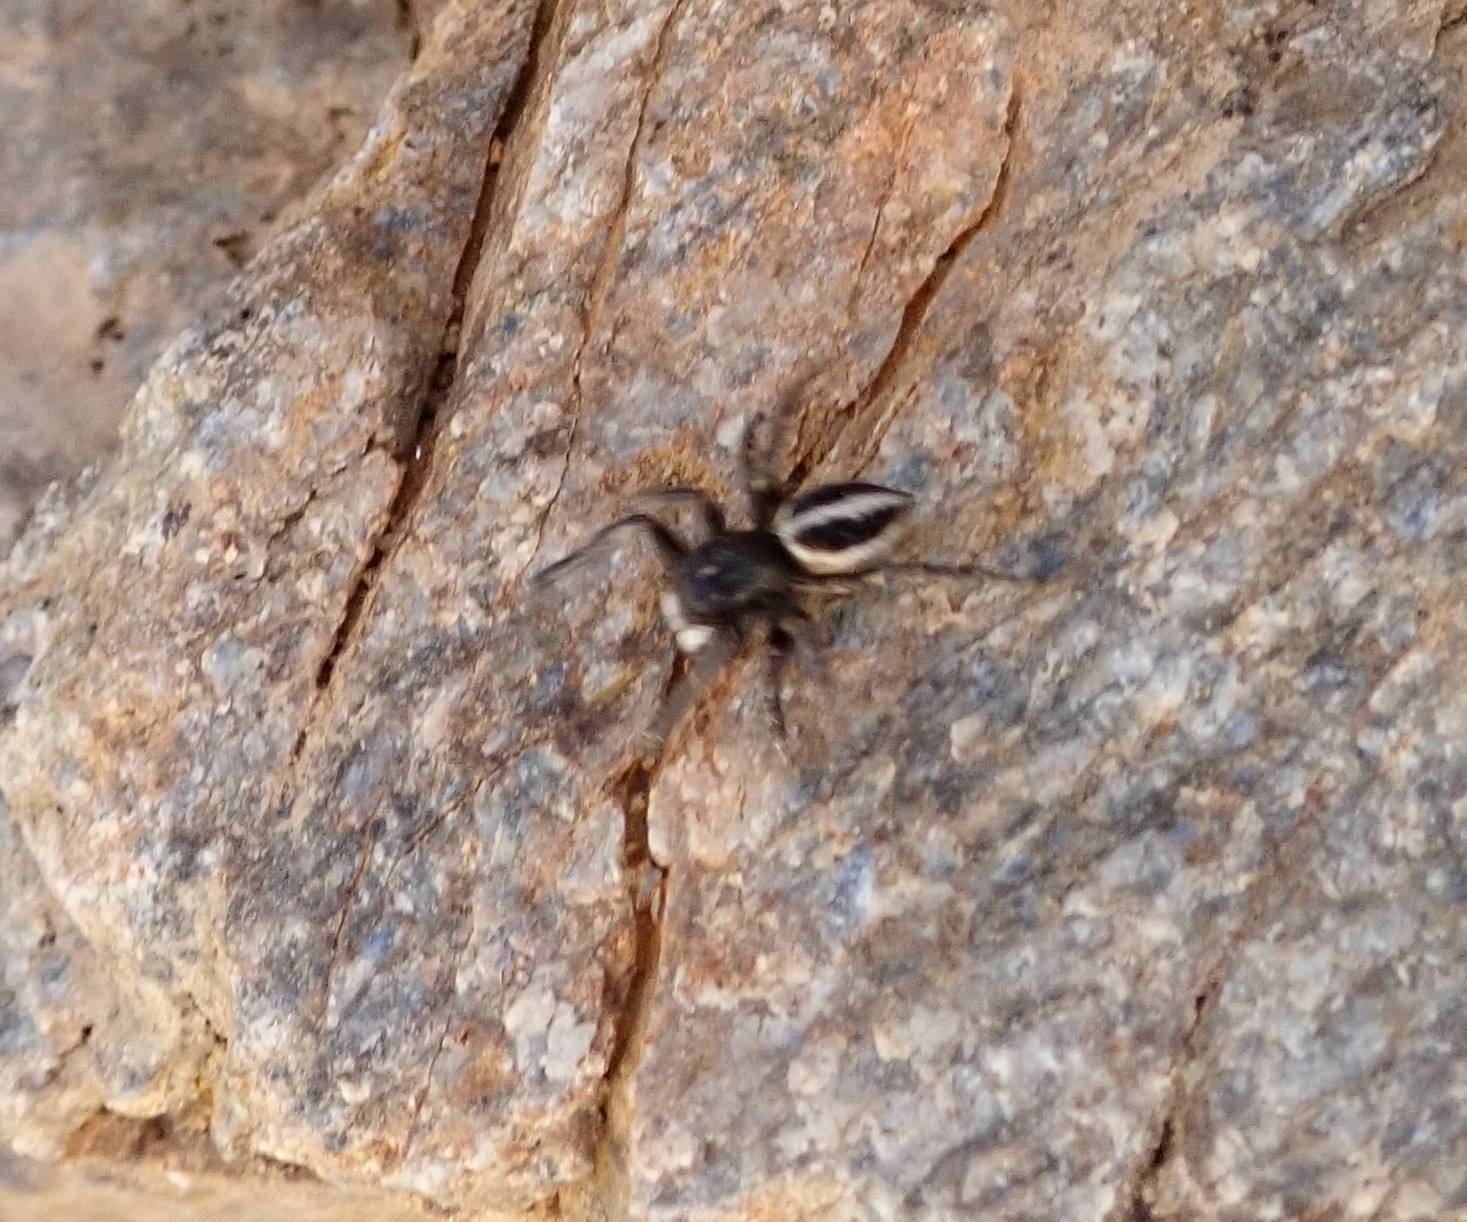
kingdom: Animalia
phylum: Arthropoda
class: Arachnida
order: Araneae
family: Salticidae
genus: Attulus
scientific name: Attulus longipes
